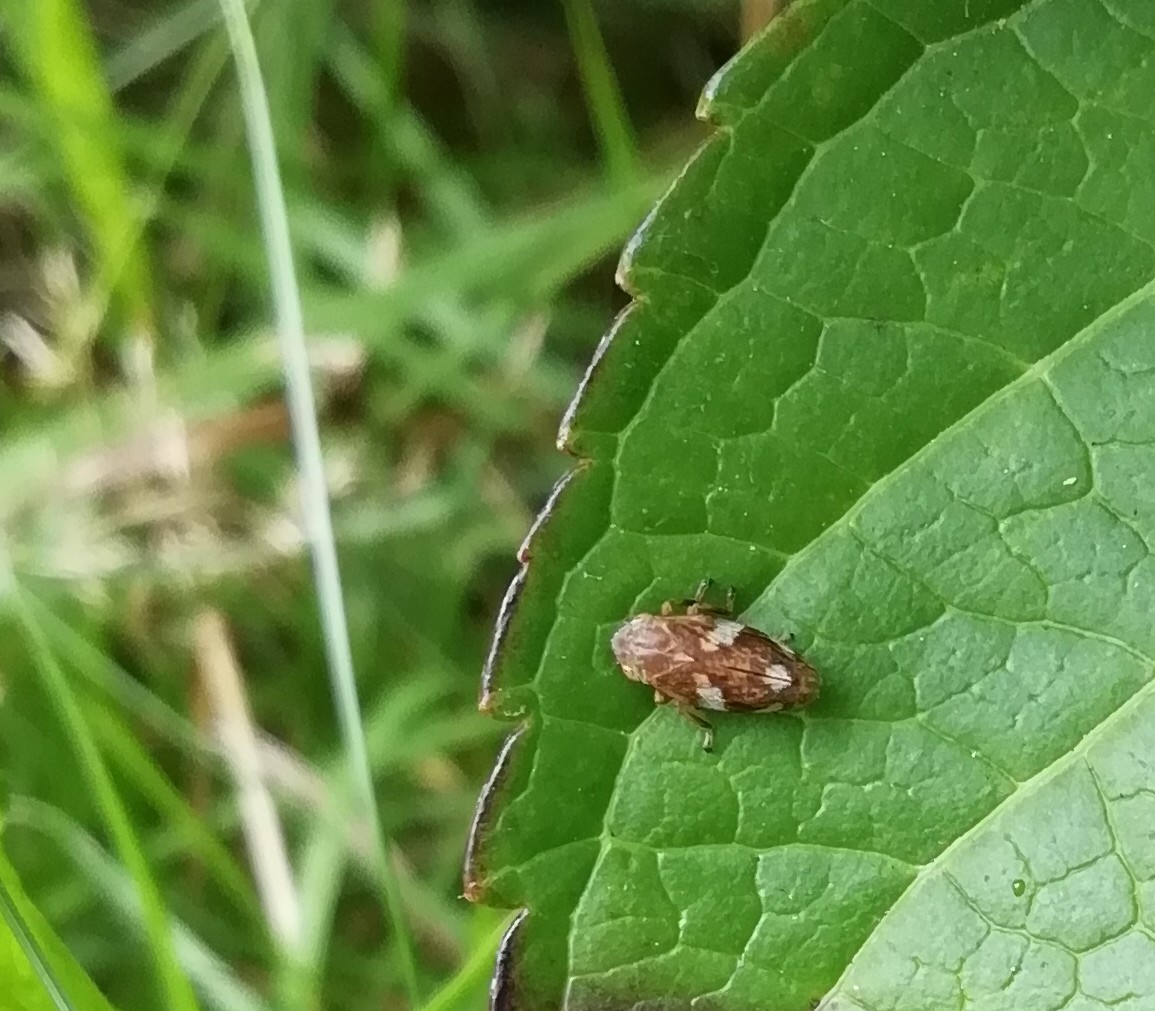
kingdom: Animalia
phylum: Arthropoda
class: Insecta
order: Hemiptera
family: Aphrophoridae
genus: Philaenus
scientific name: Philaenus spumarius
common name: Meadow spittlebug
